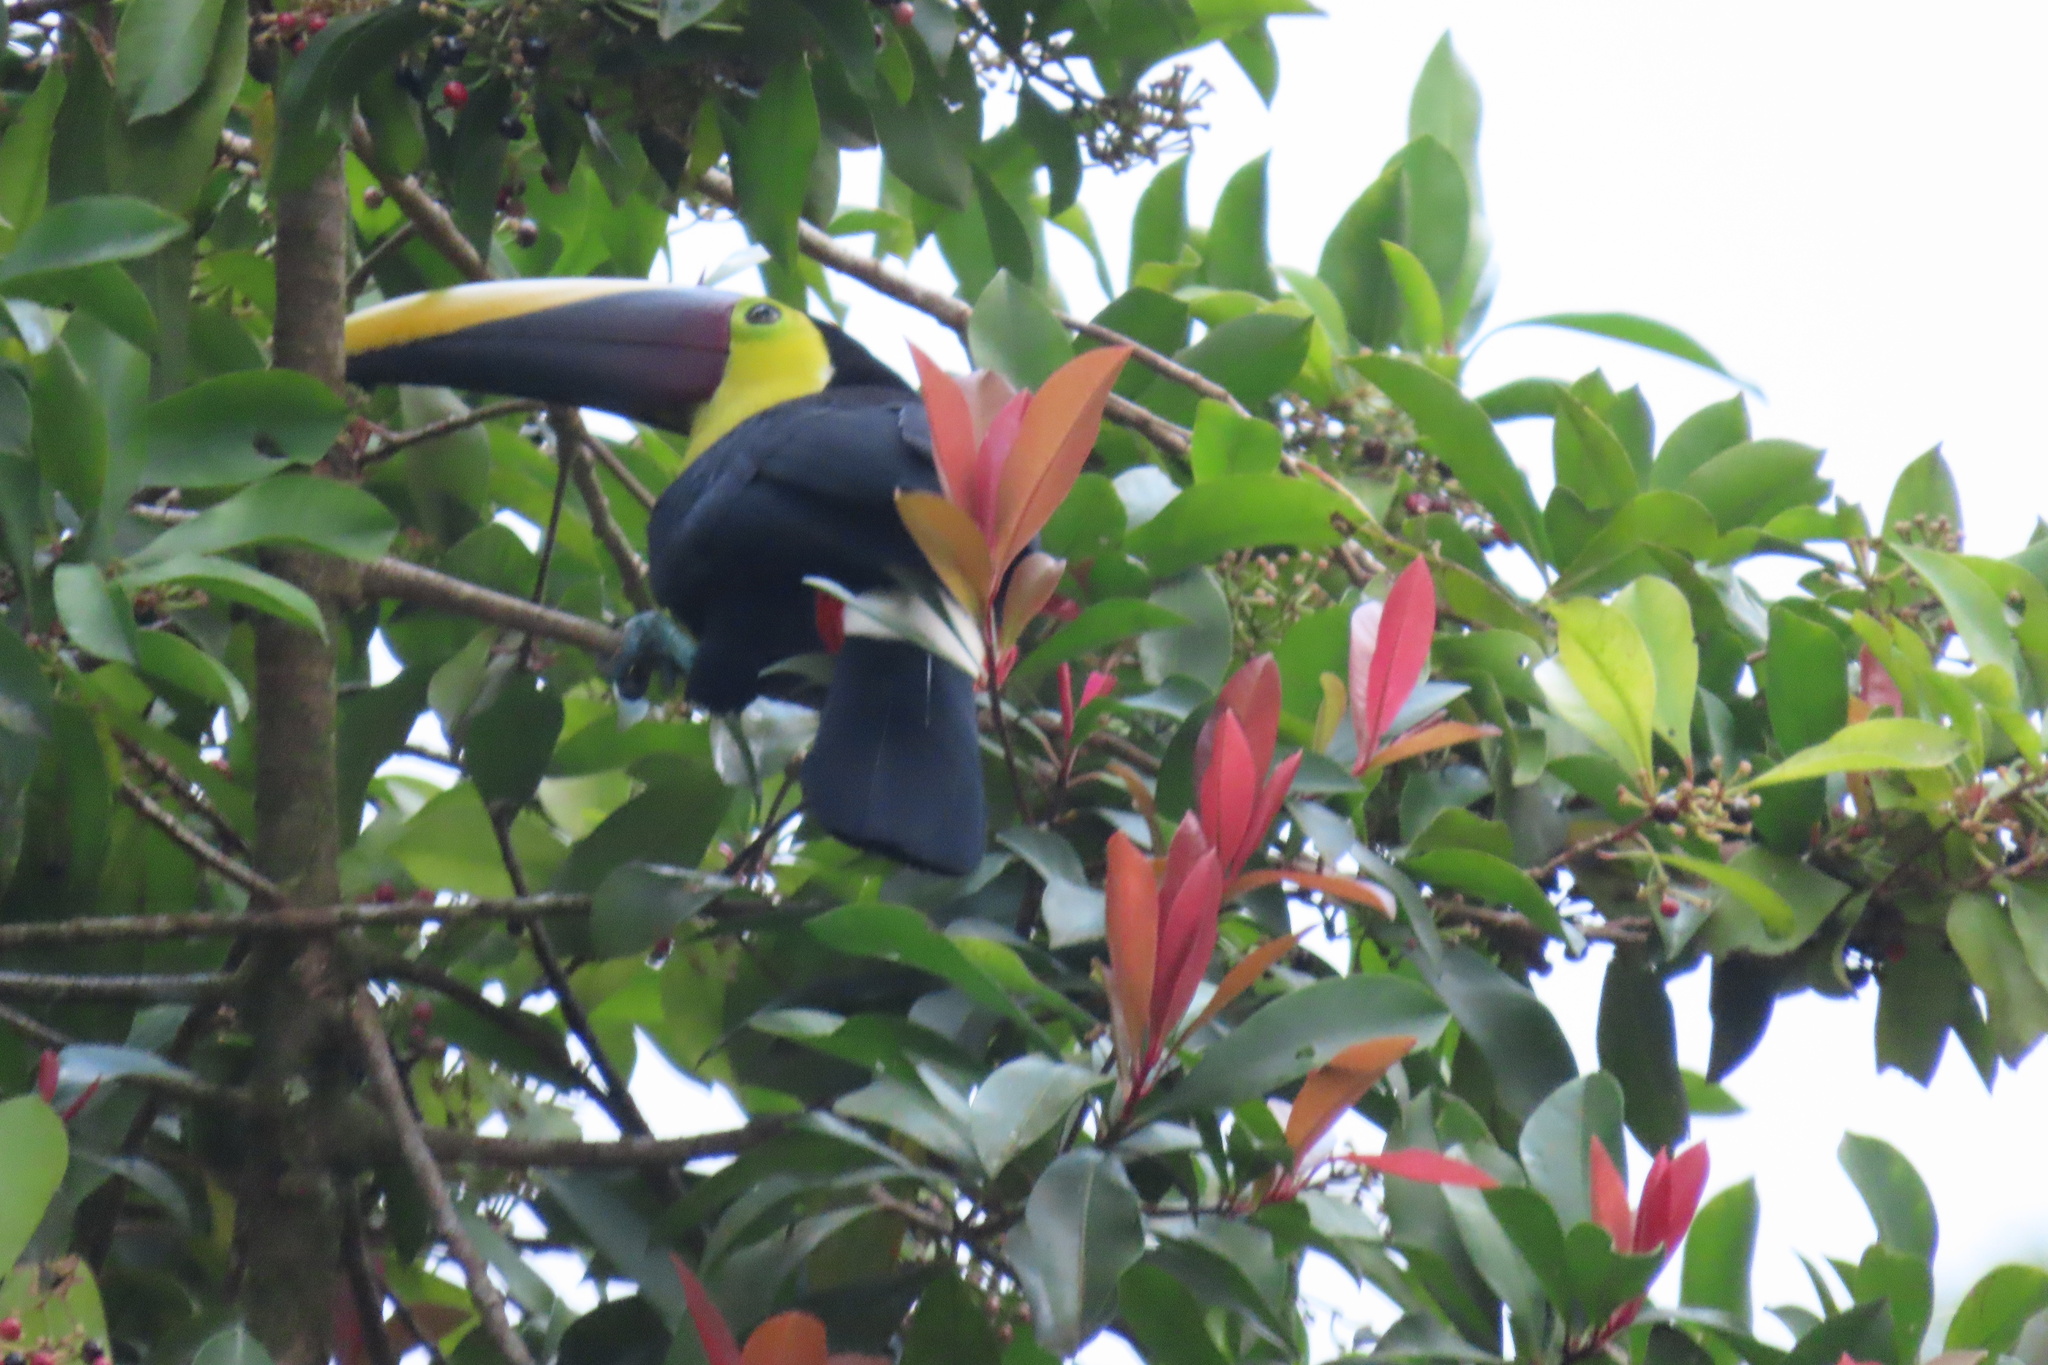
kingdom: Animalia
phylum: Chordata
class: Aves
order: Piciformes
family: Ramphastidae
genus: Ramphastos
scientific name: Ramphastos ambiguus
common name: Yellow-throated toucan
